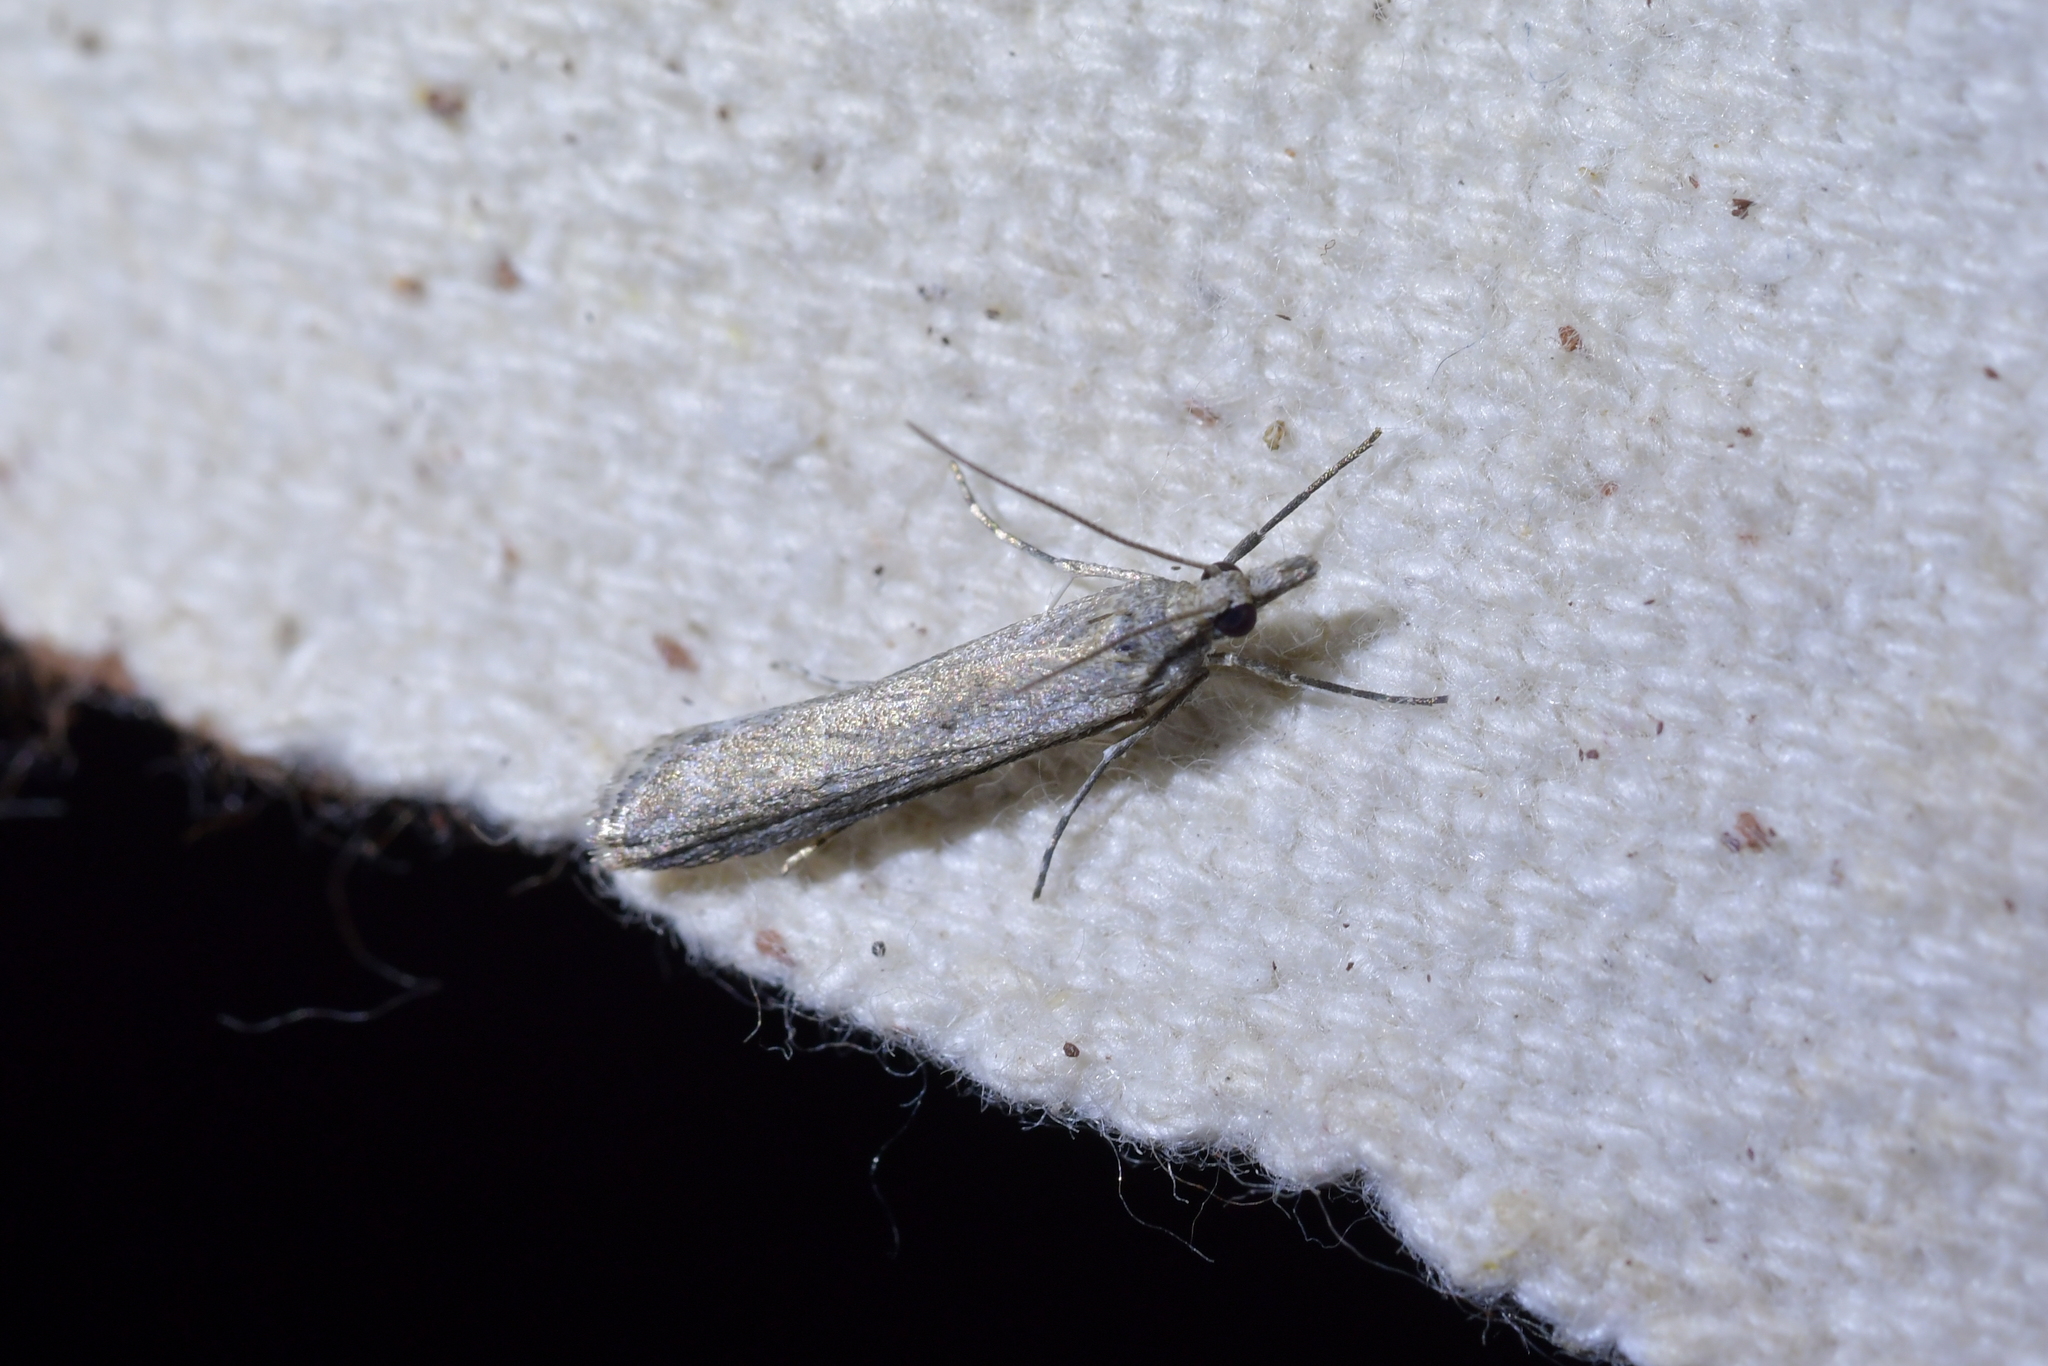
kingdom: Animalia
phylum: Arthropoda
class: Insecta
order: Lepidoptera
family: Crambidae
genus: Eudonia
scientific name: Eudonia leptalea
